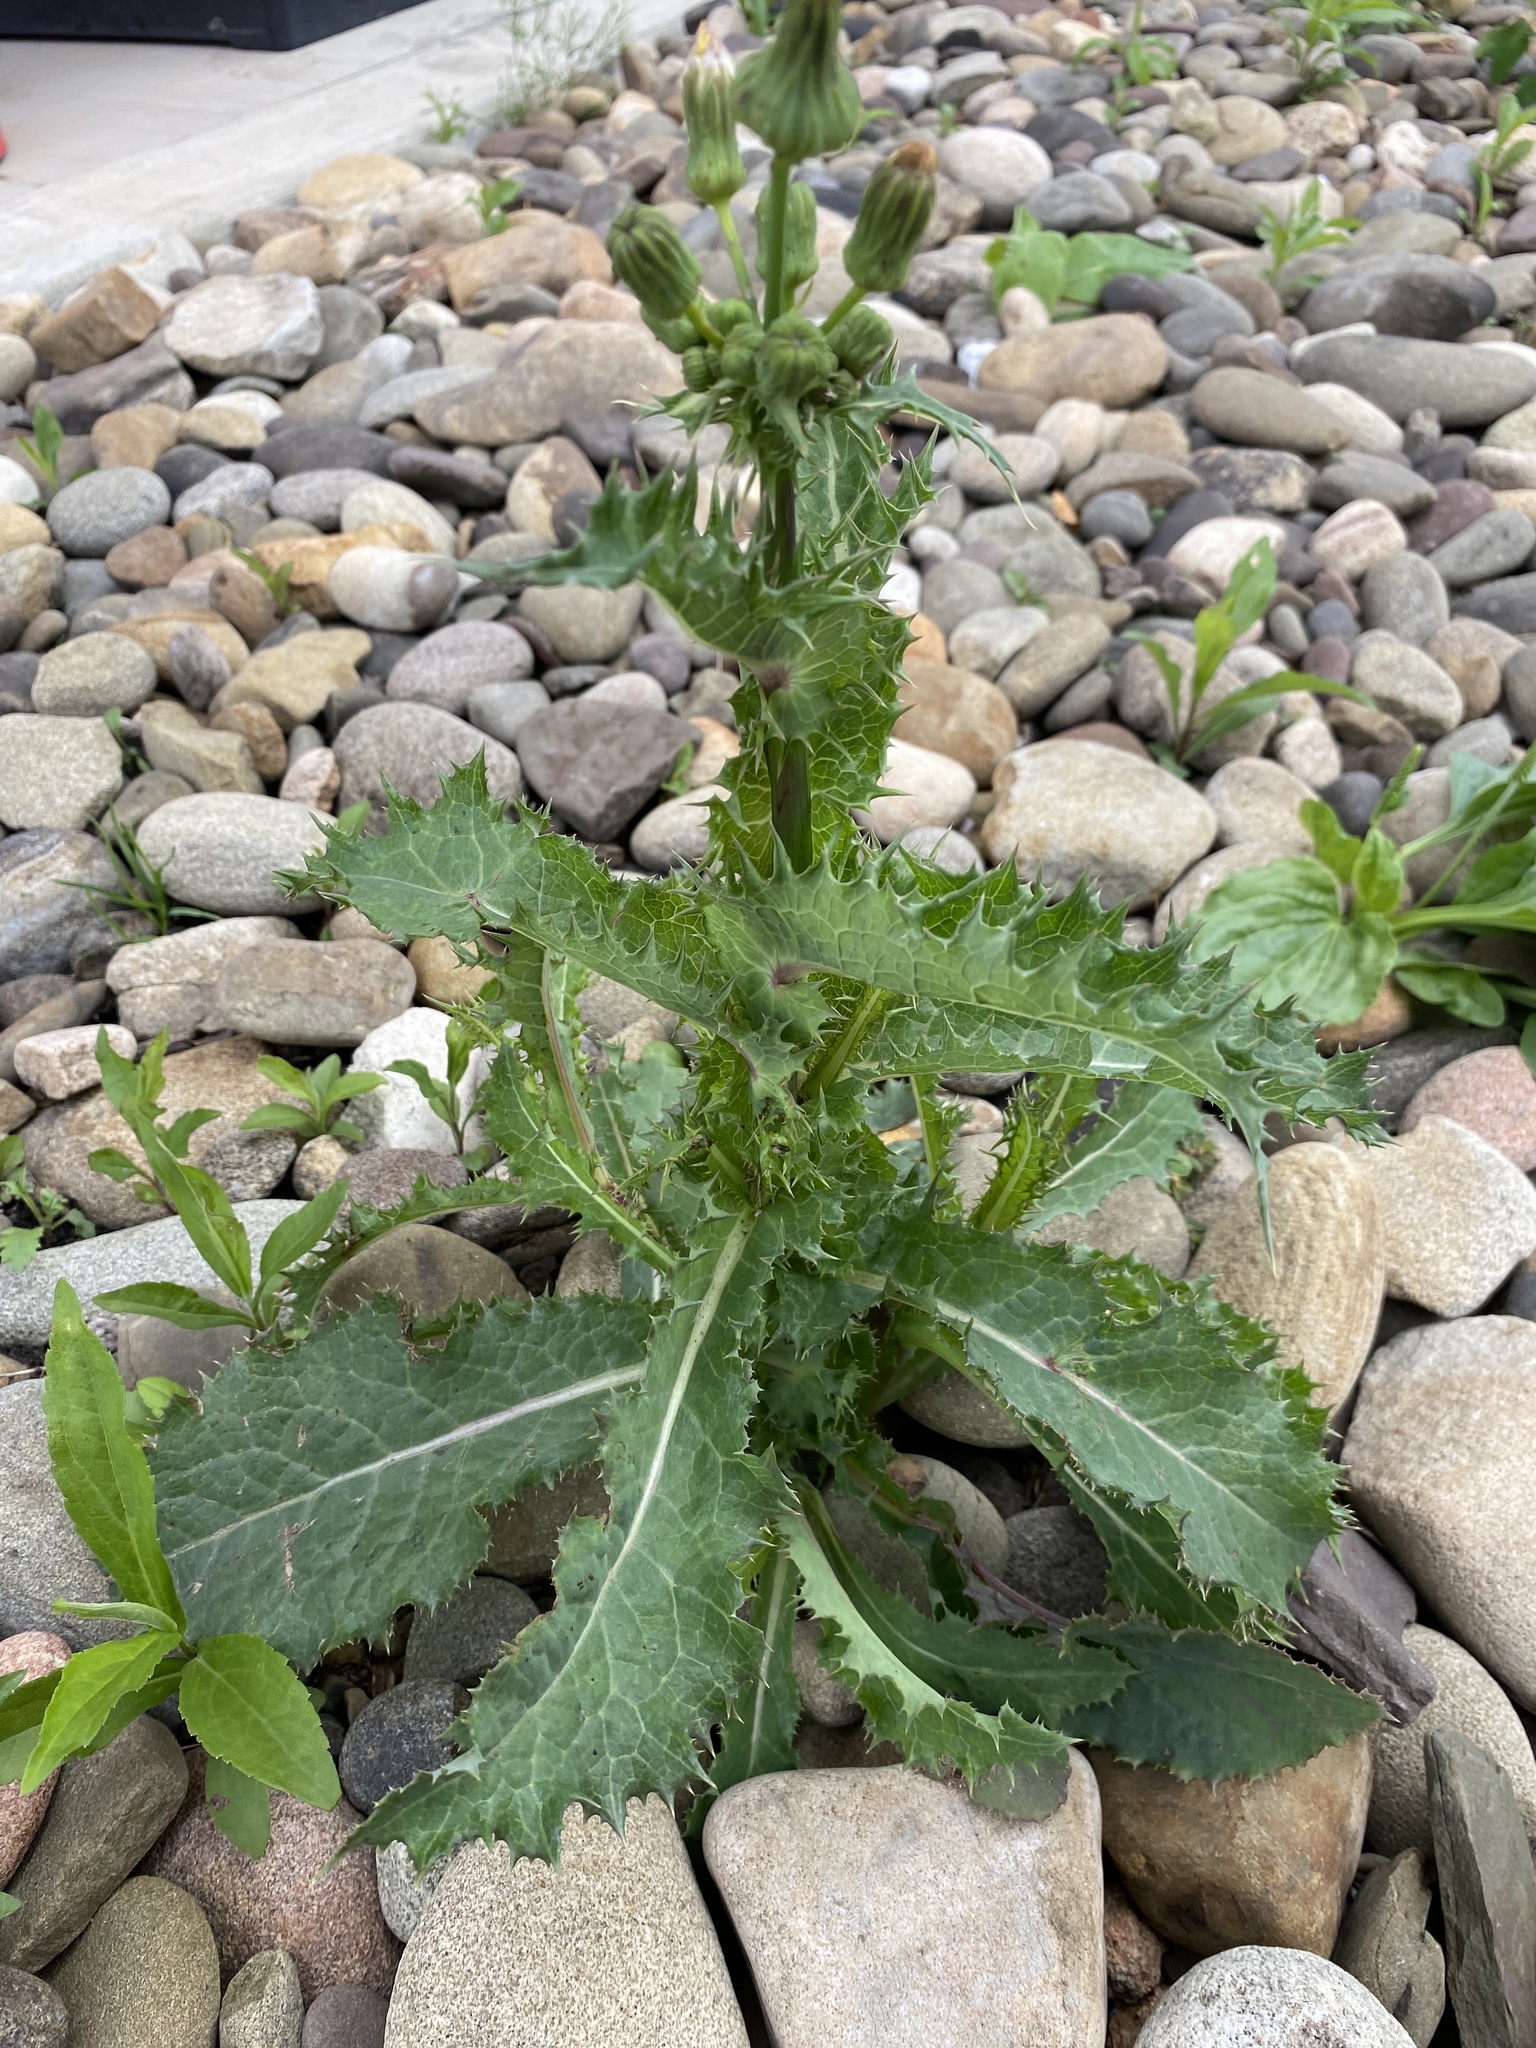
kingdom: Plantae
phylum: Tracheophyta
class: Magnoliopsida
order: Asterales
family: Asteraceae
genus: Sonchus
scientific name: Sonchus asper
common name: Prickly sow-thistle
